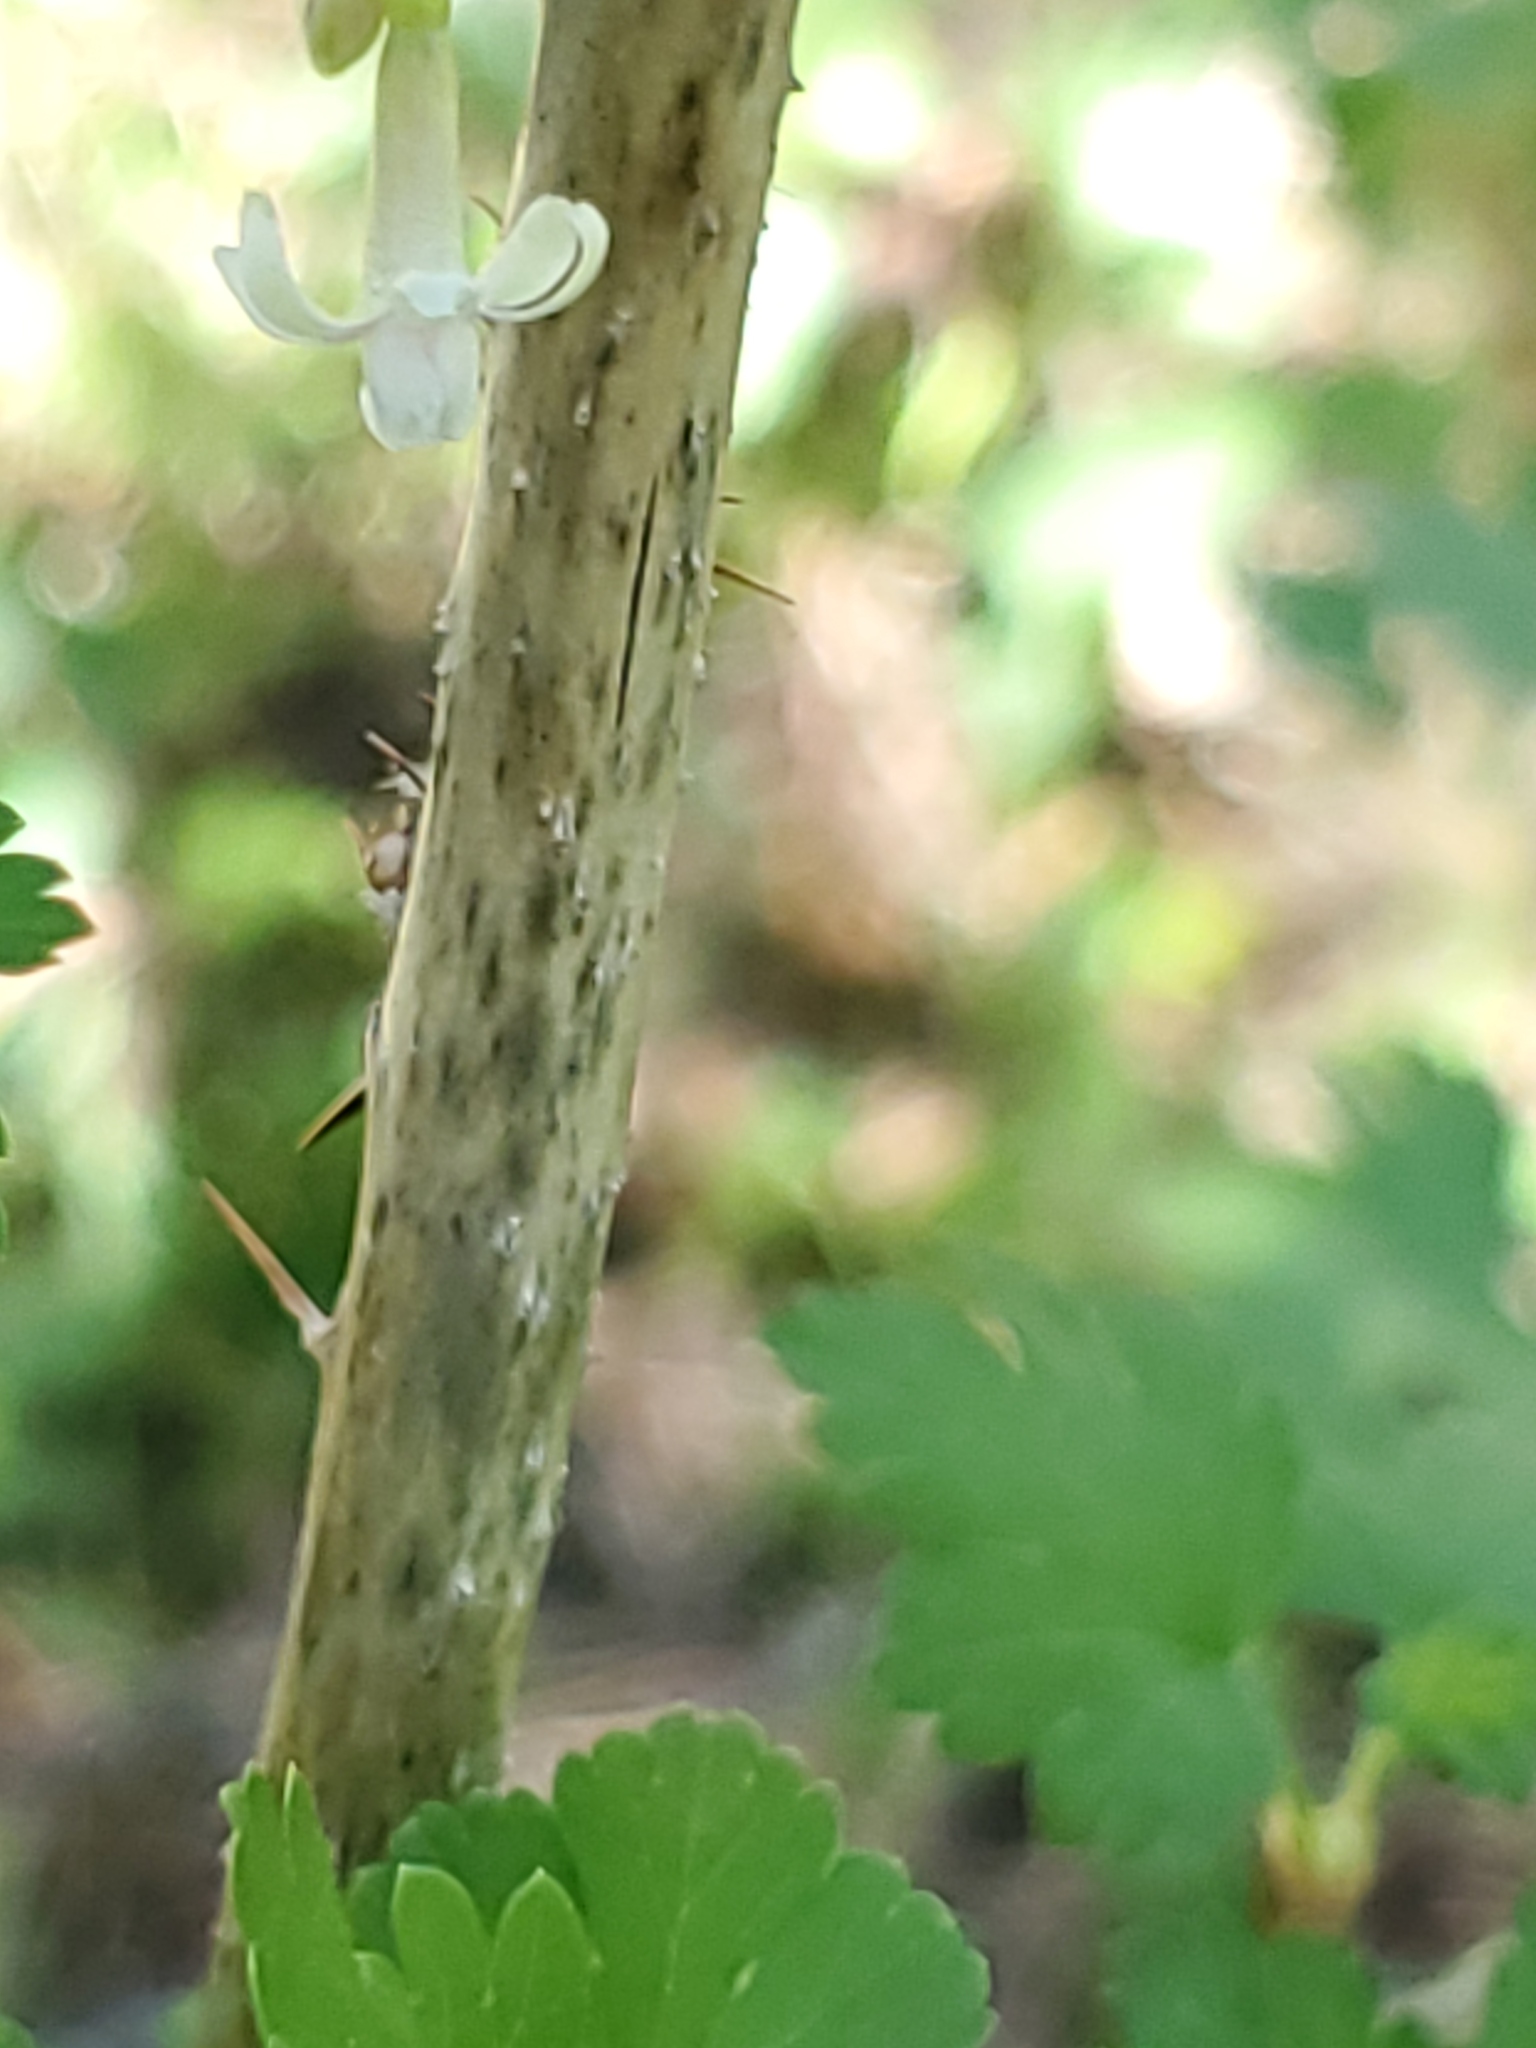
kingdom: Plantae
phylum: Tracheophyta
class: Magnoliopsida
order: Saxifragales
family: Grossulariaceae
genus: Ribes
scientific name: Ribes oxyacanthoides
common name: Northern gooseberry
